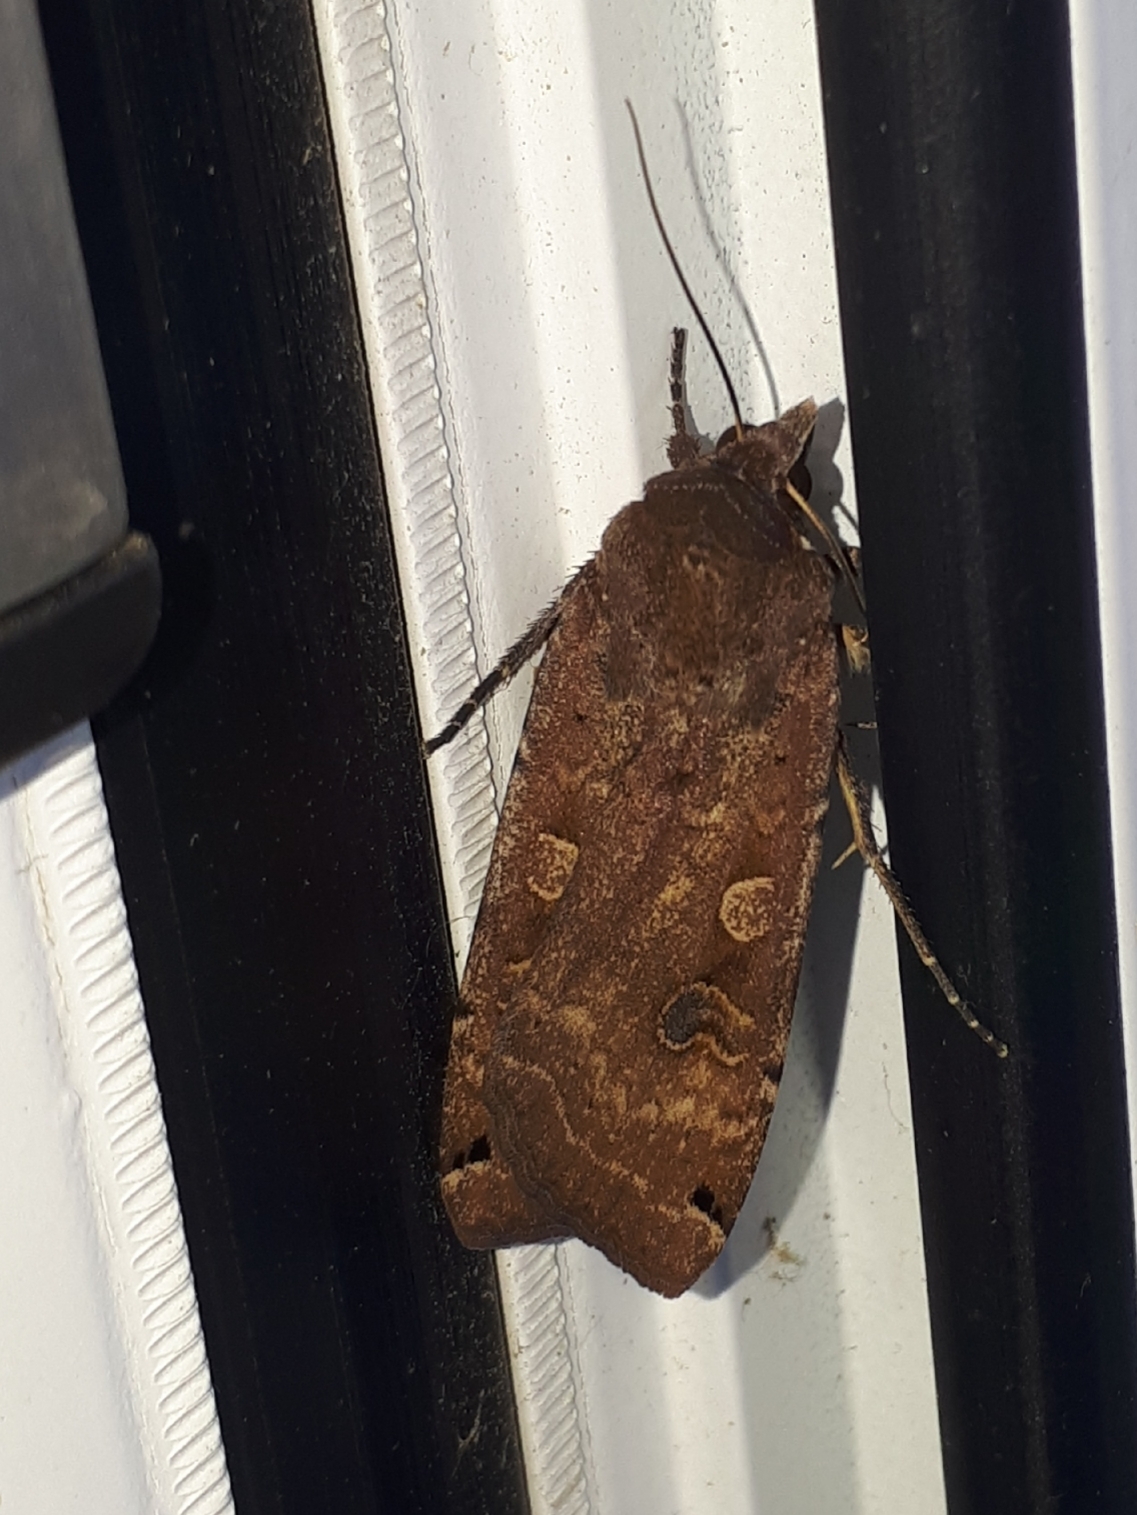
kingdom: Animalia
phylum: Arthropoda
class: Insecta
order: Lepidoptera
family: Noctuidae
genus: Noctua
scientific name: Noctua pronuba
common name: Large yellow underwing
